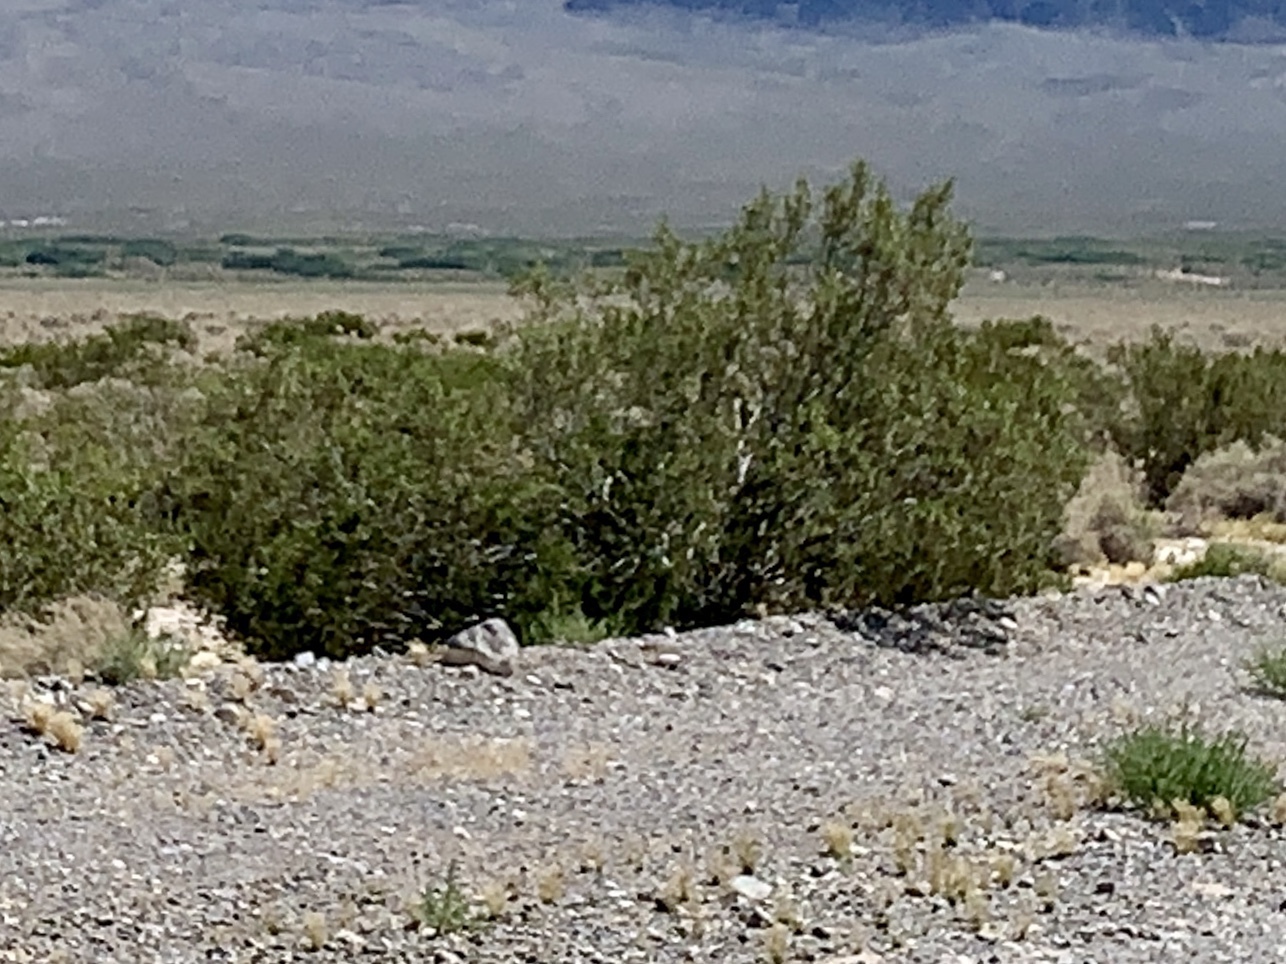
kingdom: Plantae
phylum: Tracheophyta
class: Magnoliopsida
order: Zygophyllales
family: Zygophyllaceae
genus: Larrea
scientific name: Larrea tridentata
